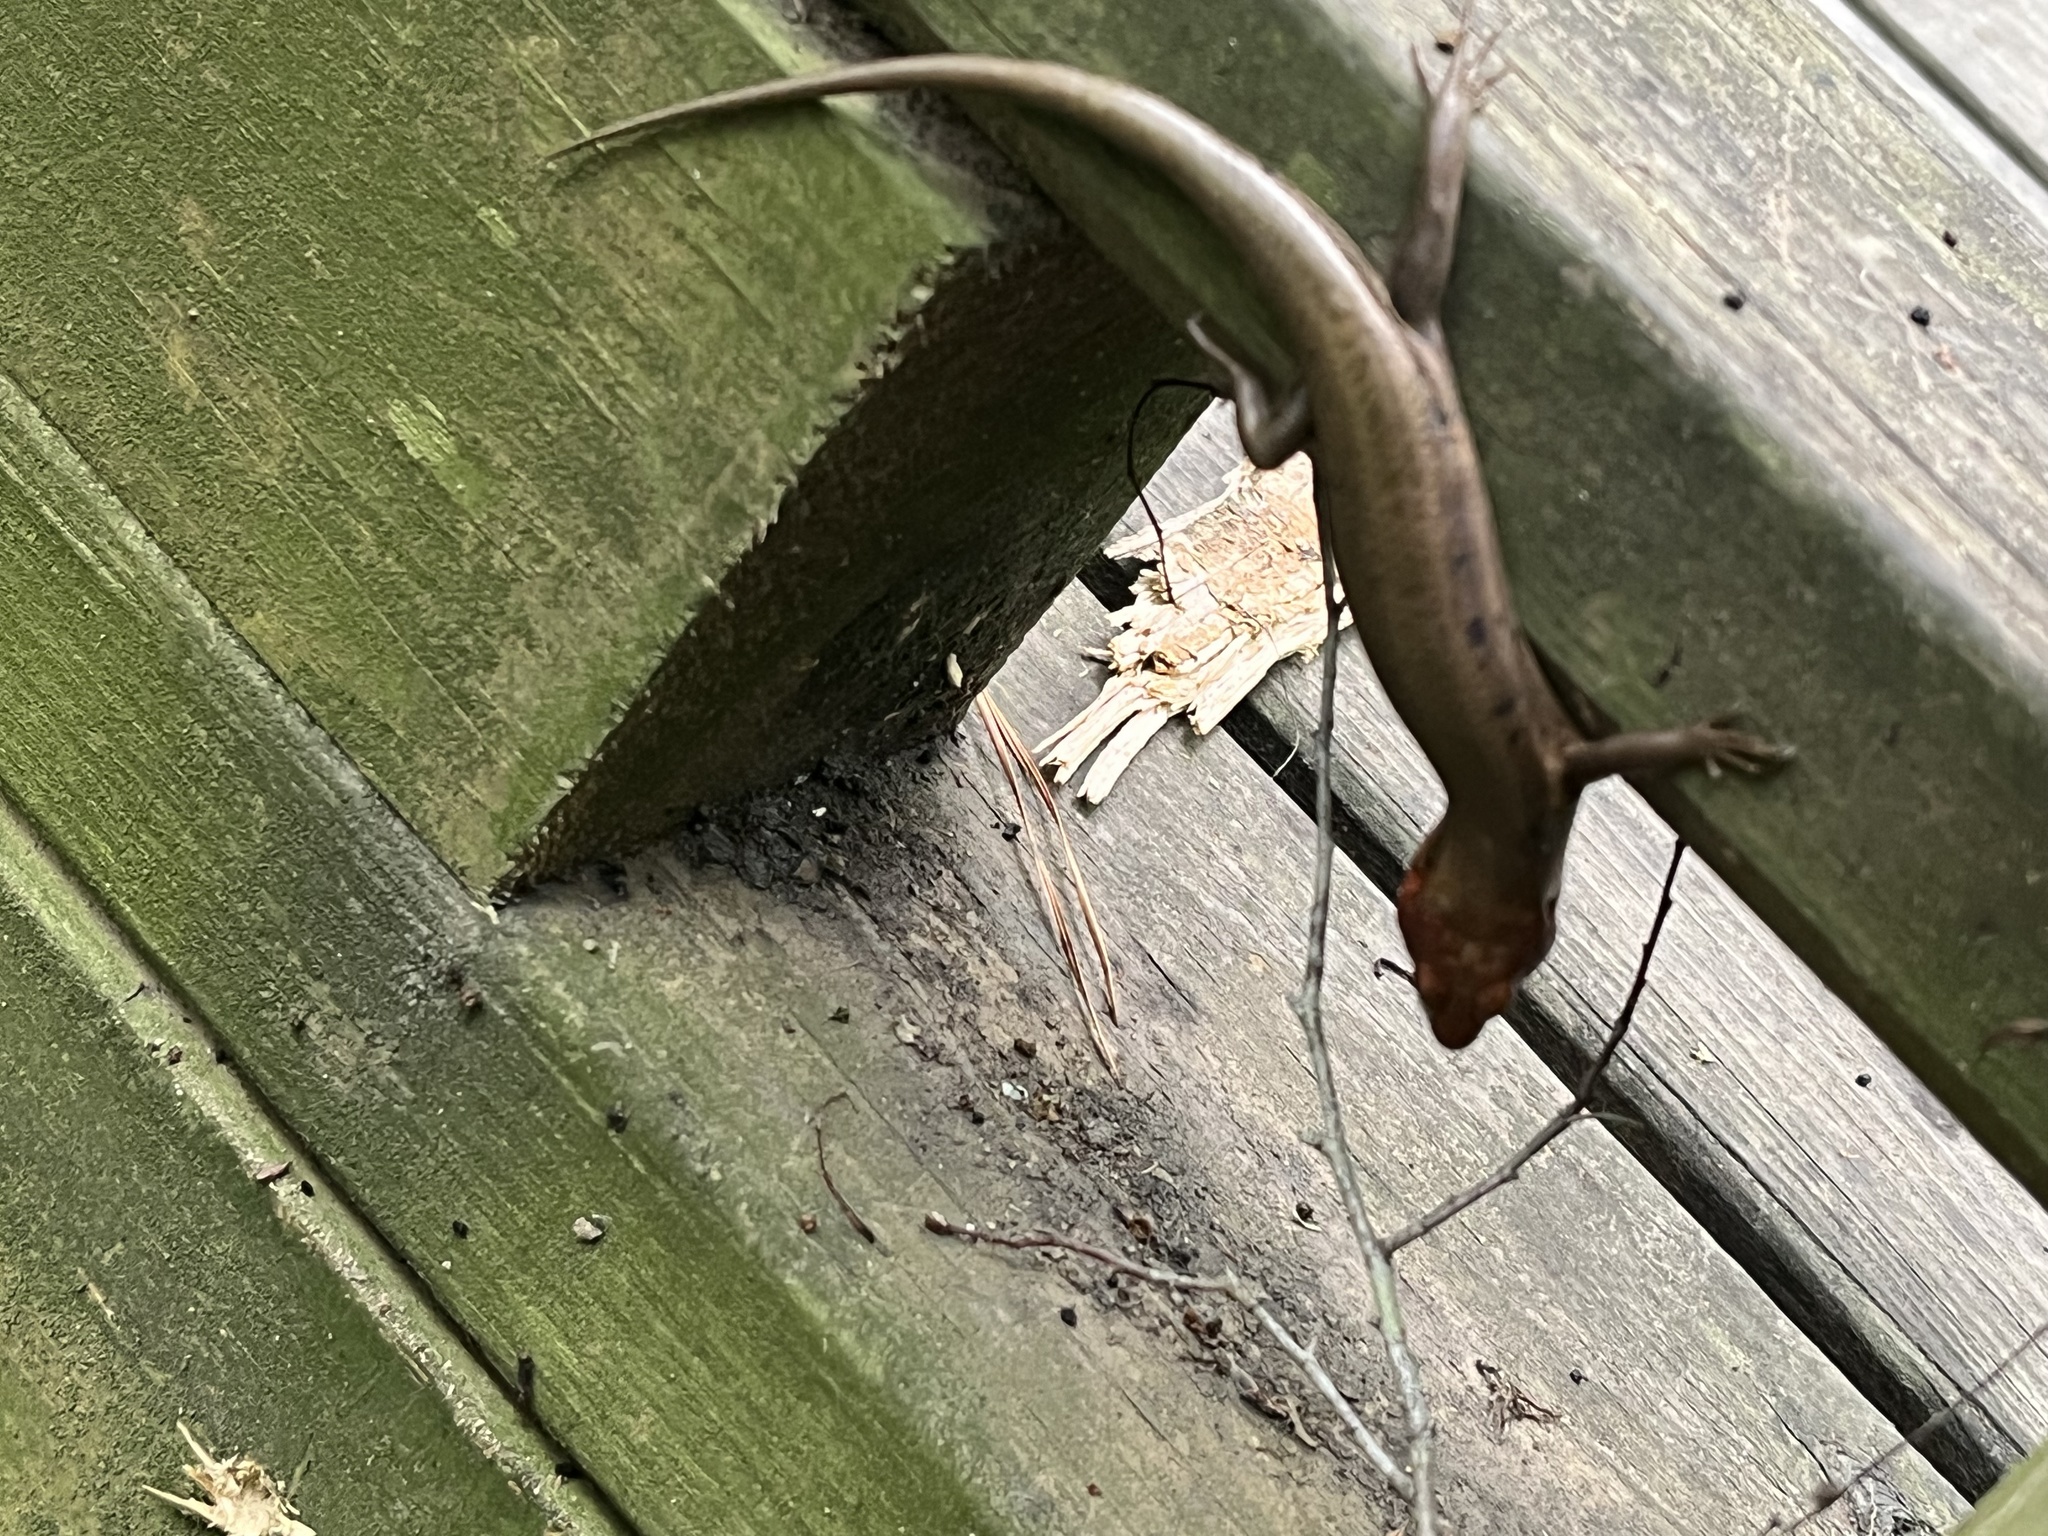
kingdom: Animalia
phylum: Chordata
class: Squamata
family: Scincidae
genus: Plestiodon
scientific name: Plestiodon fasciatus
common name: Five-lined skink
